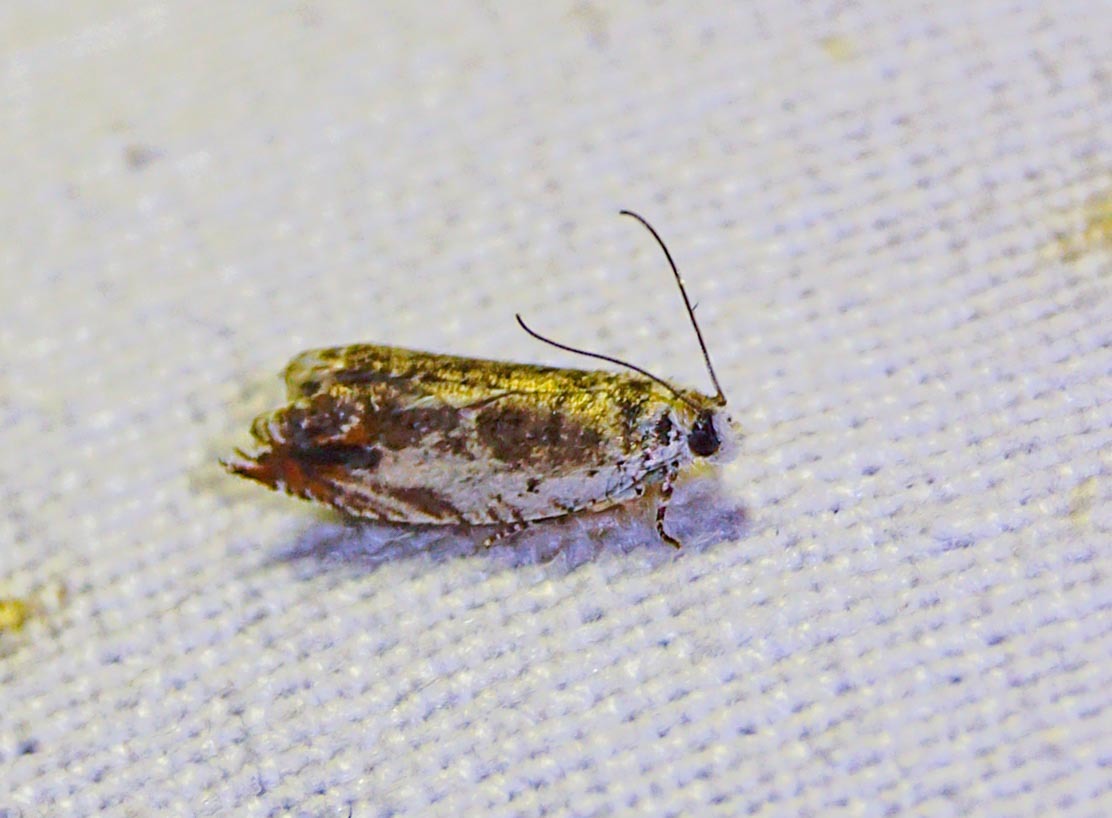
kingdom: Animalia
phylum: Arthropoda
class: Insecta
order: Lepidoptera
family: Tortricidae
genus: Ancylis
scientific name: Ancylis laetana
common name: Aspen roller
